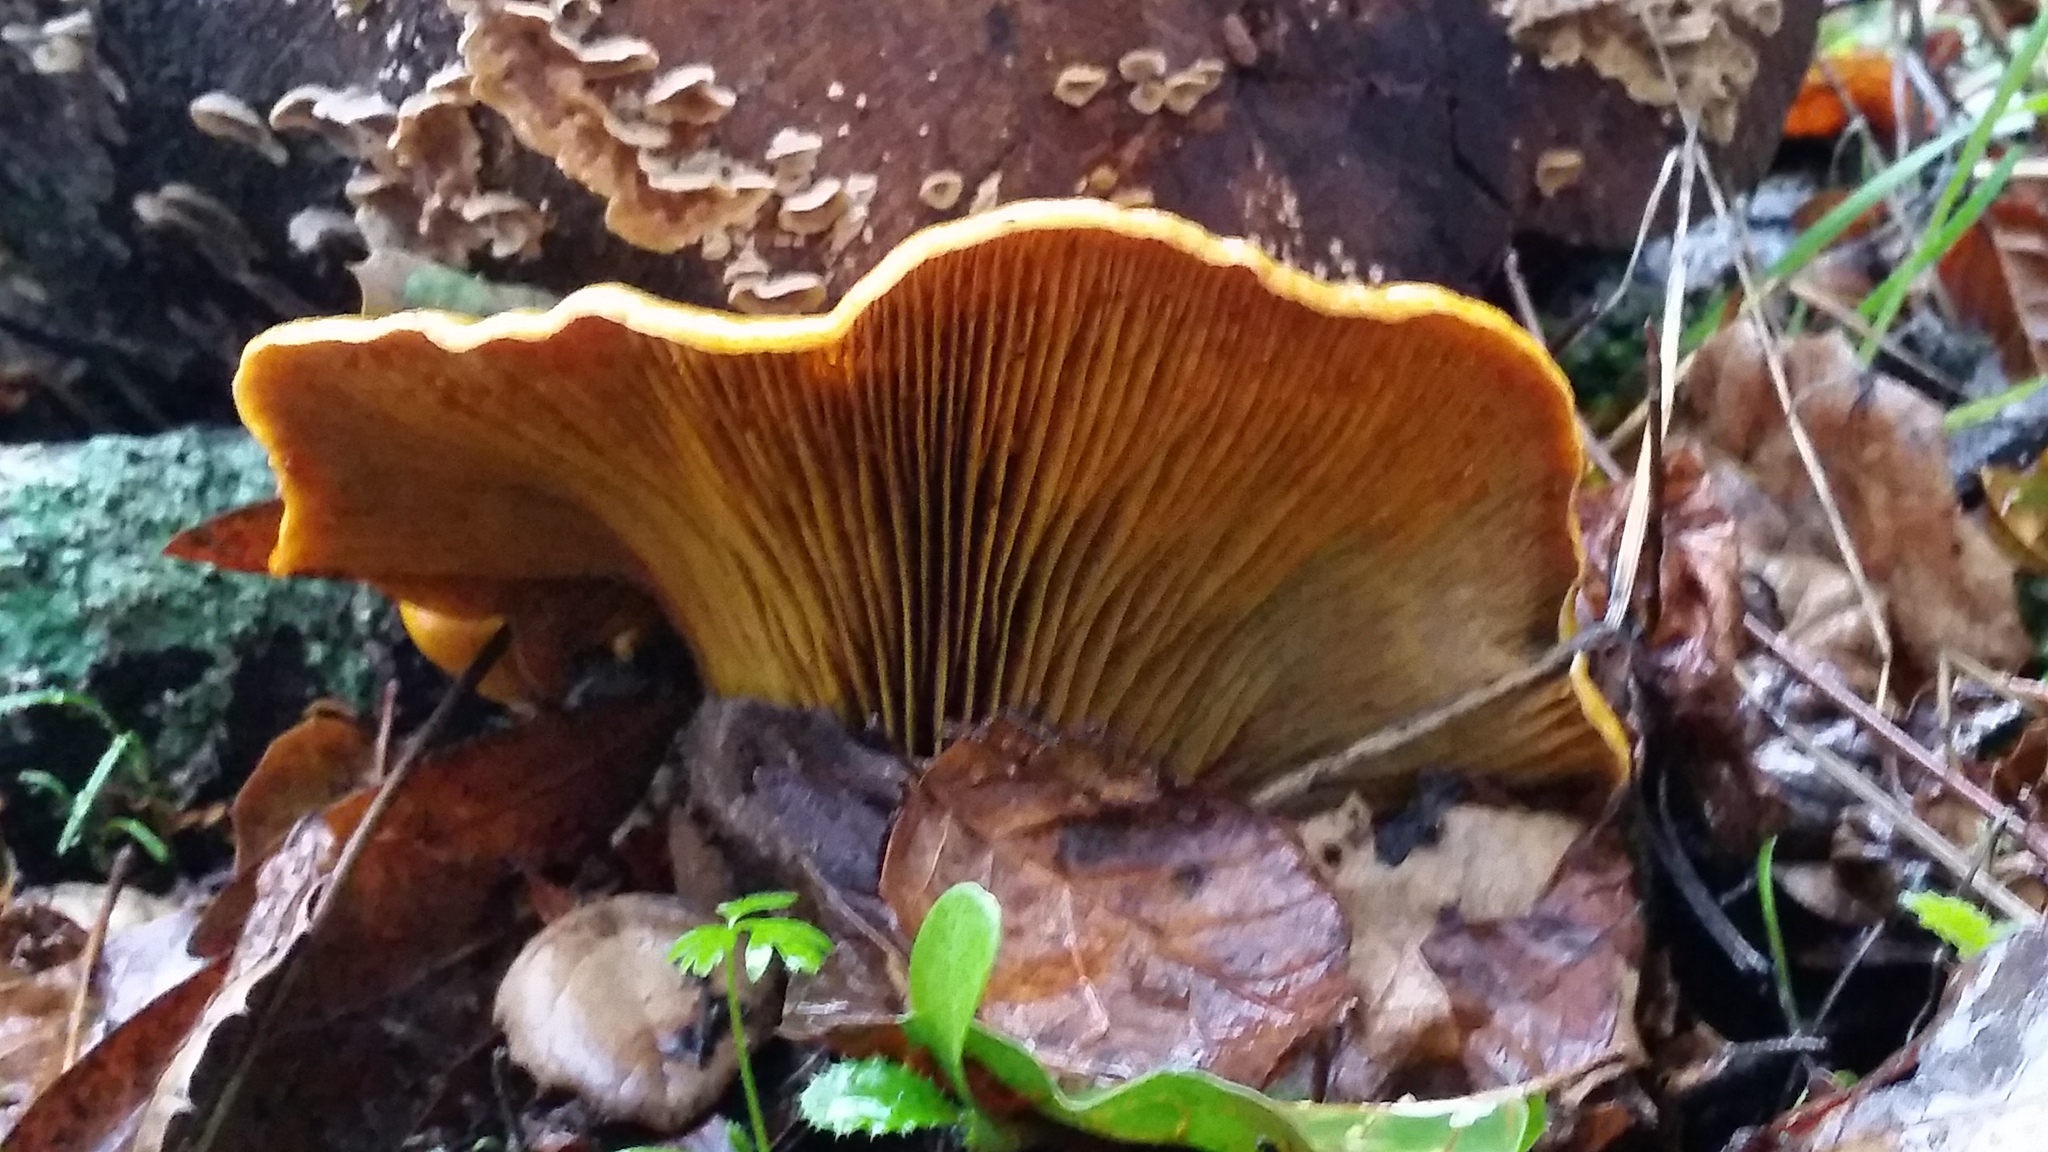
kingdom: Fungi
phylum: Basidiomycota
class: Agaricomycetes
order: Agaricales
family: Omphalotaceae
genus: Omphalotus
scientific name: Omphalotus olivascens
